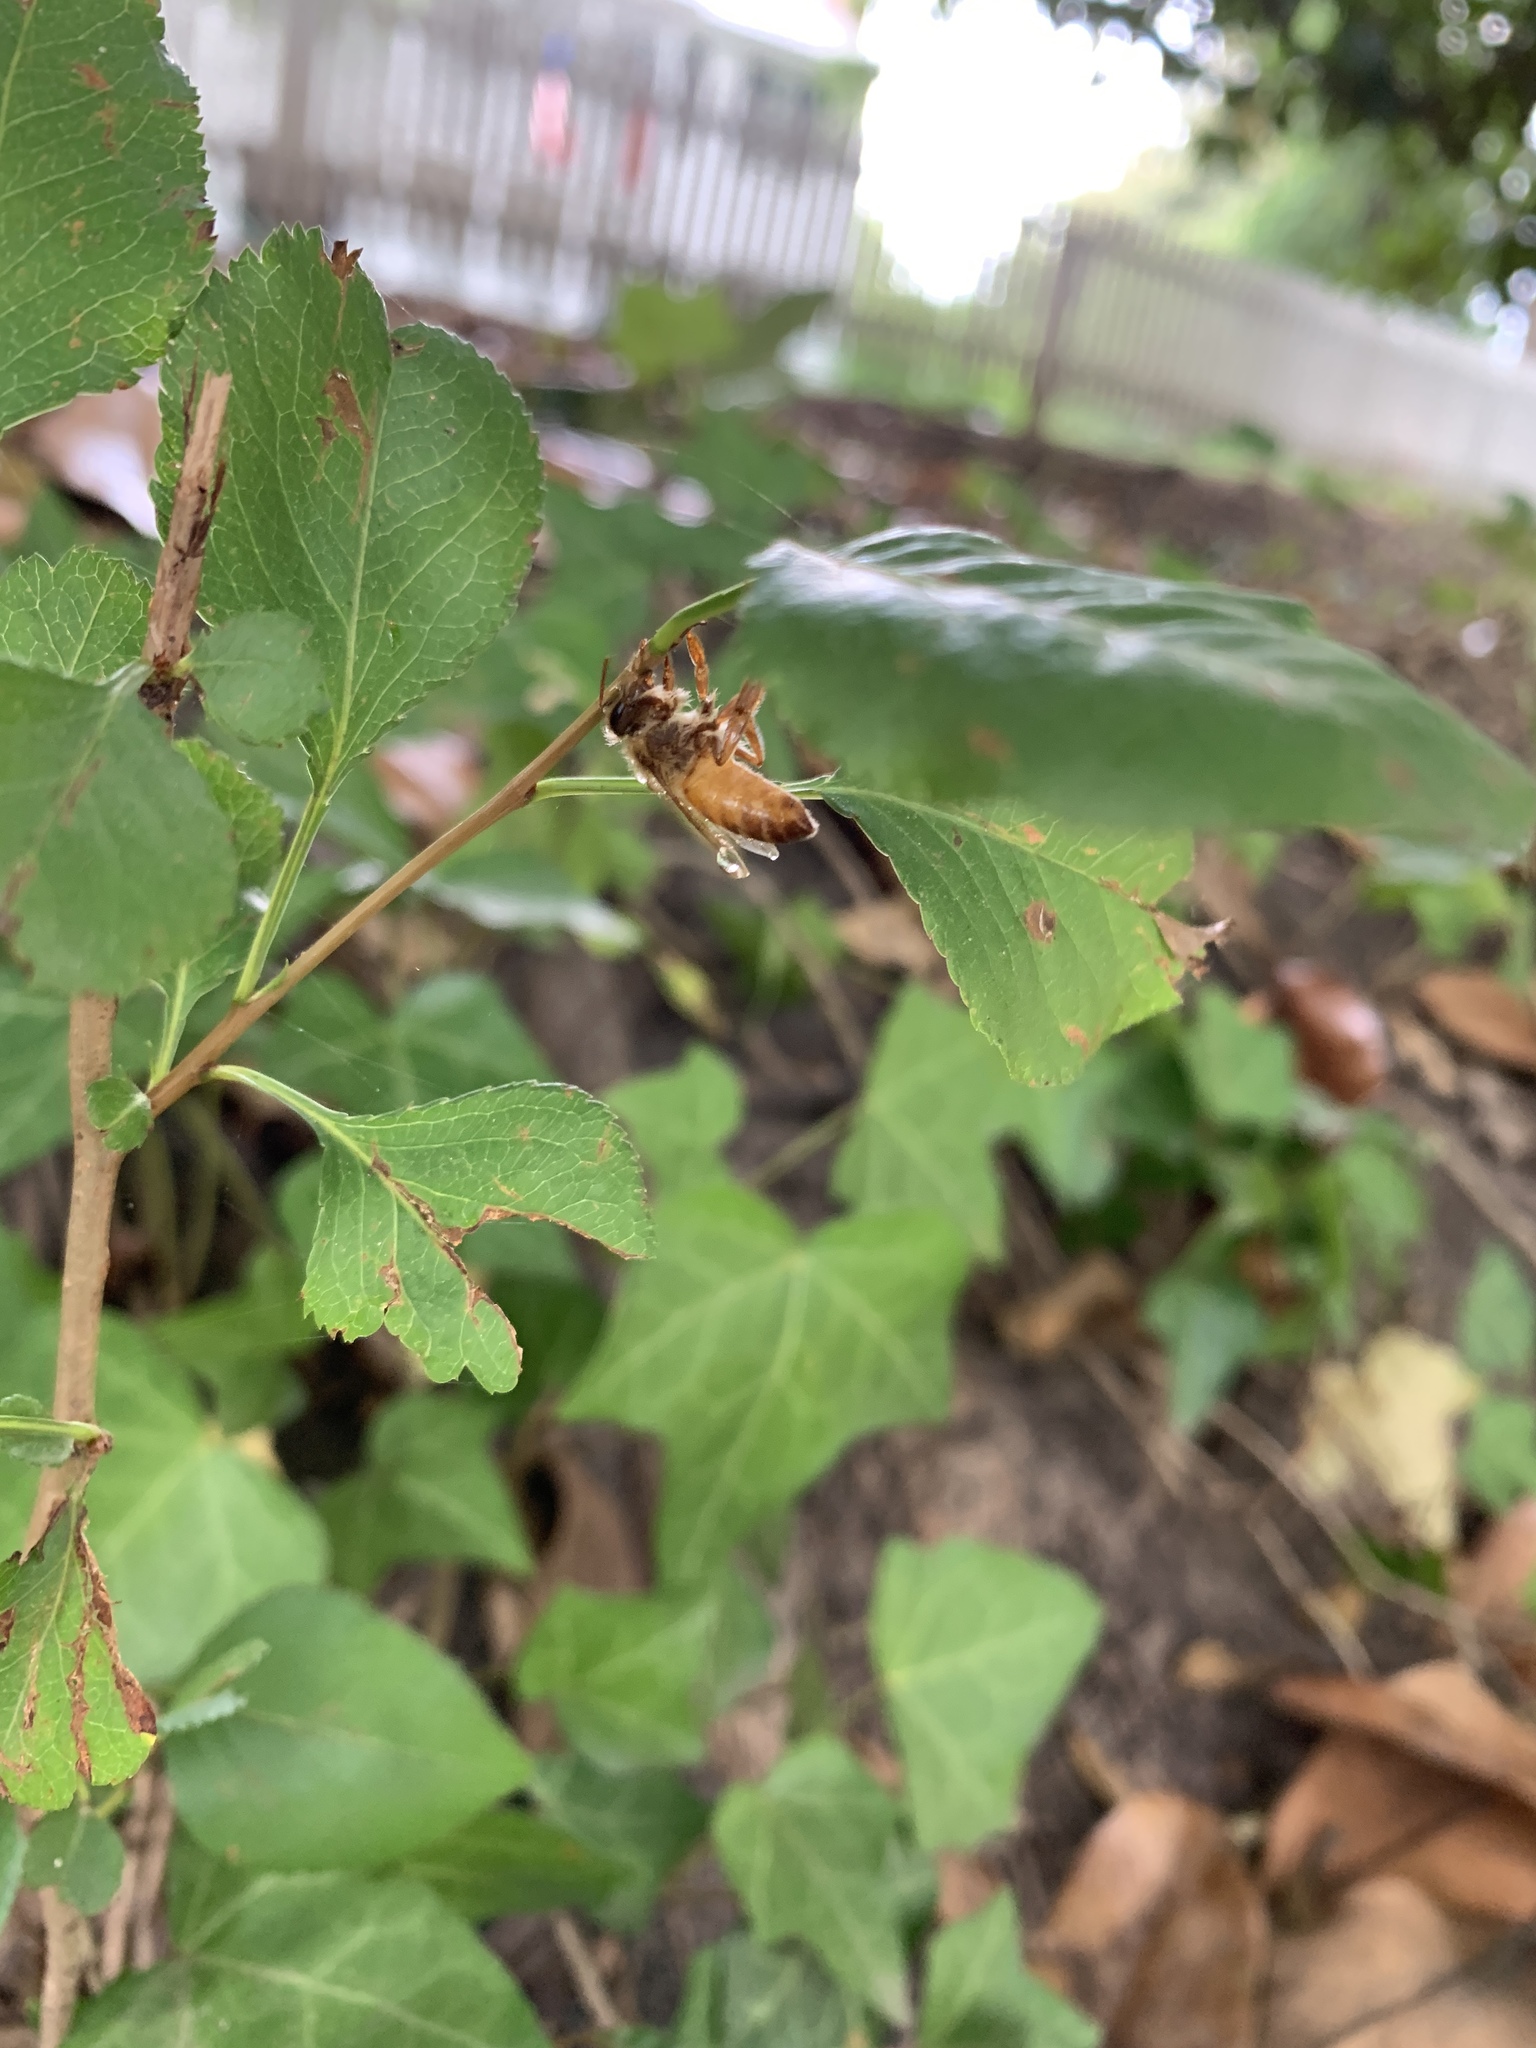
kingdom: Animalia
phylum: Arthropoda
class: Insecta
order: Hymenoptera
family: Apidae
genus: Apis
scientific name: Apis mellifera
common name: Honey bee
